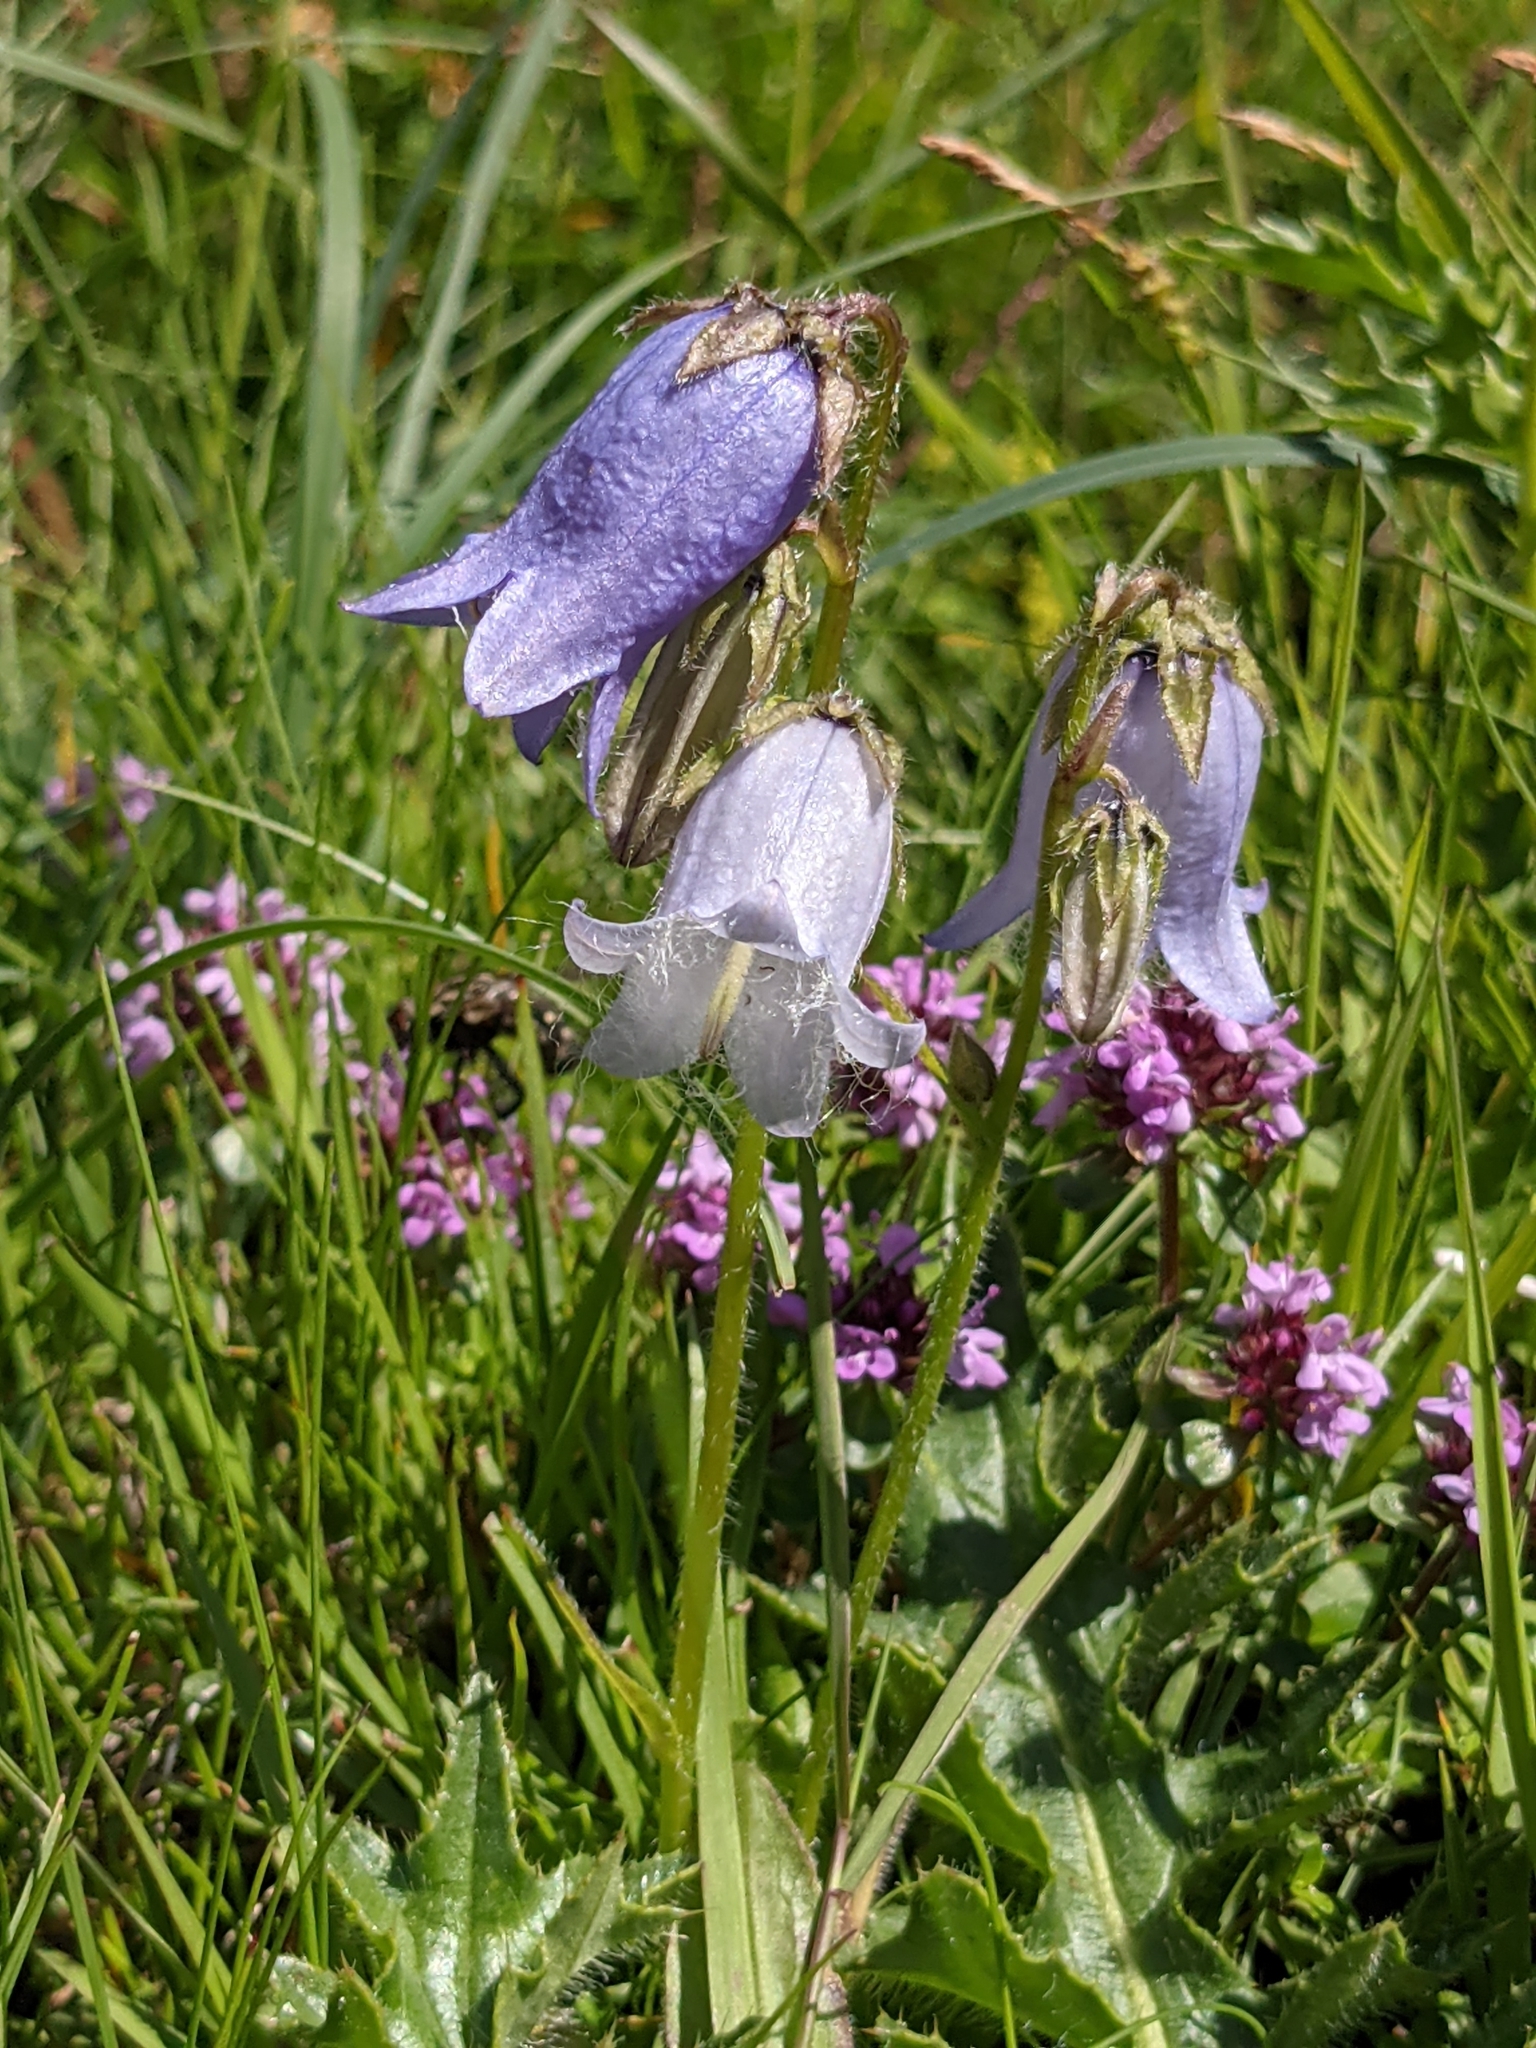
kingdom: Plantae
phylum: Tracheophyta
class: Magnoliopsida
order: Asterales
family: Campanulaceae
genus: Campanula
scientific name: Campanula barbata
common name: Bearded bellflower
